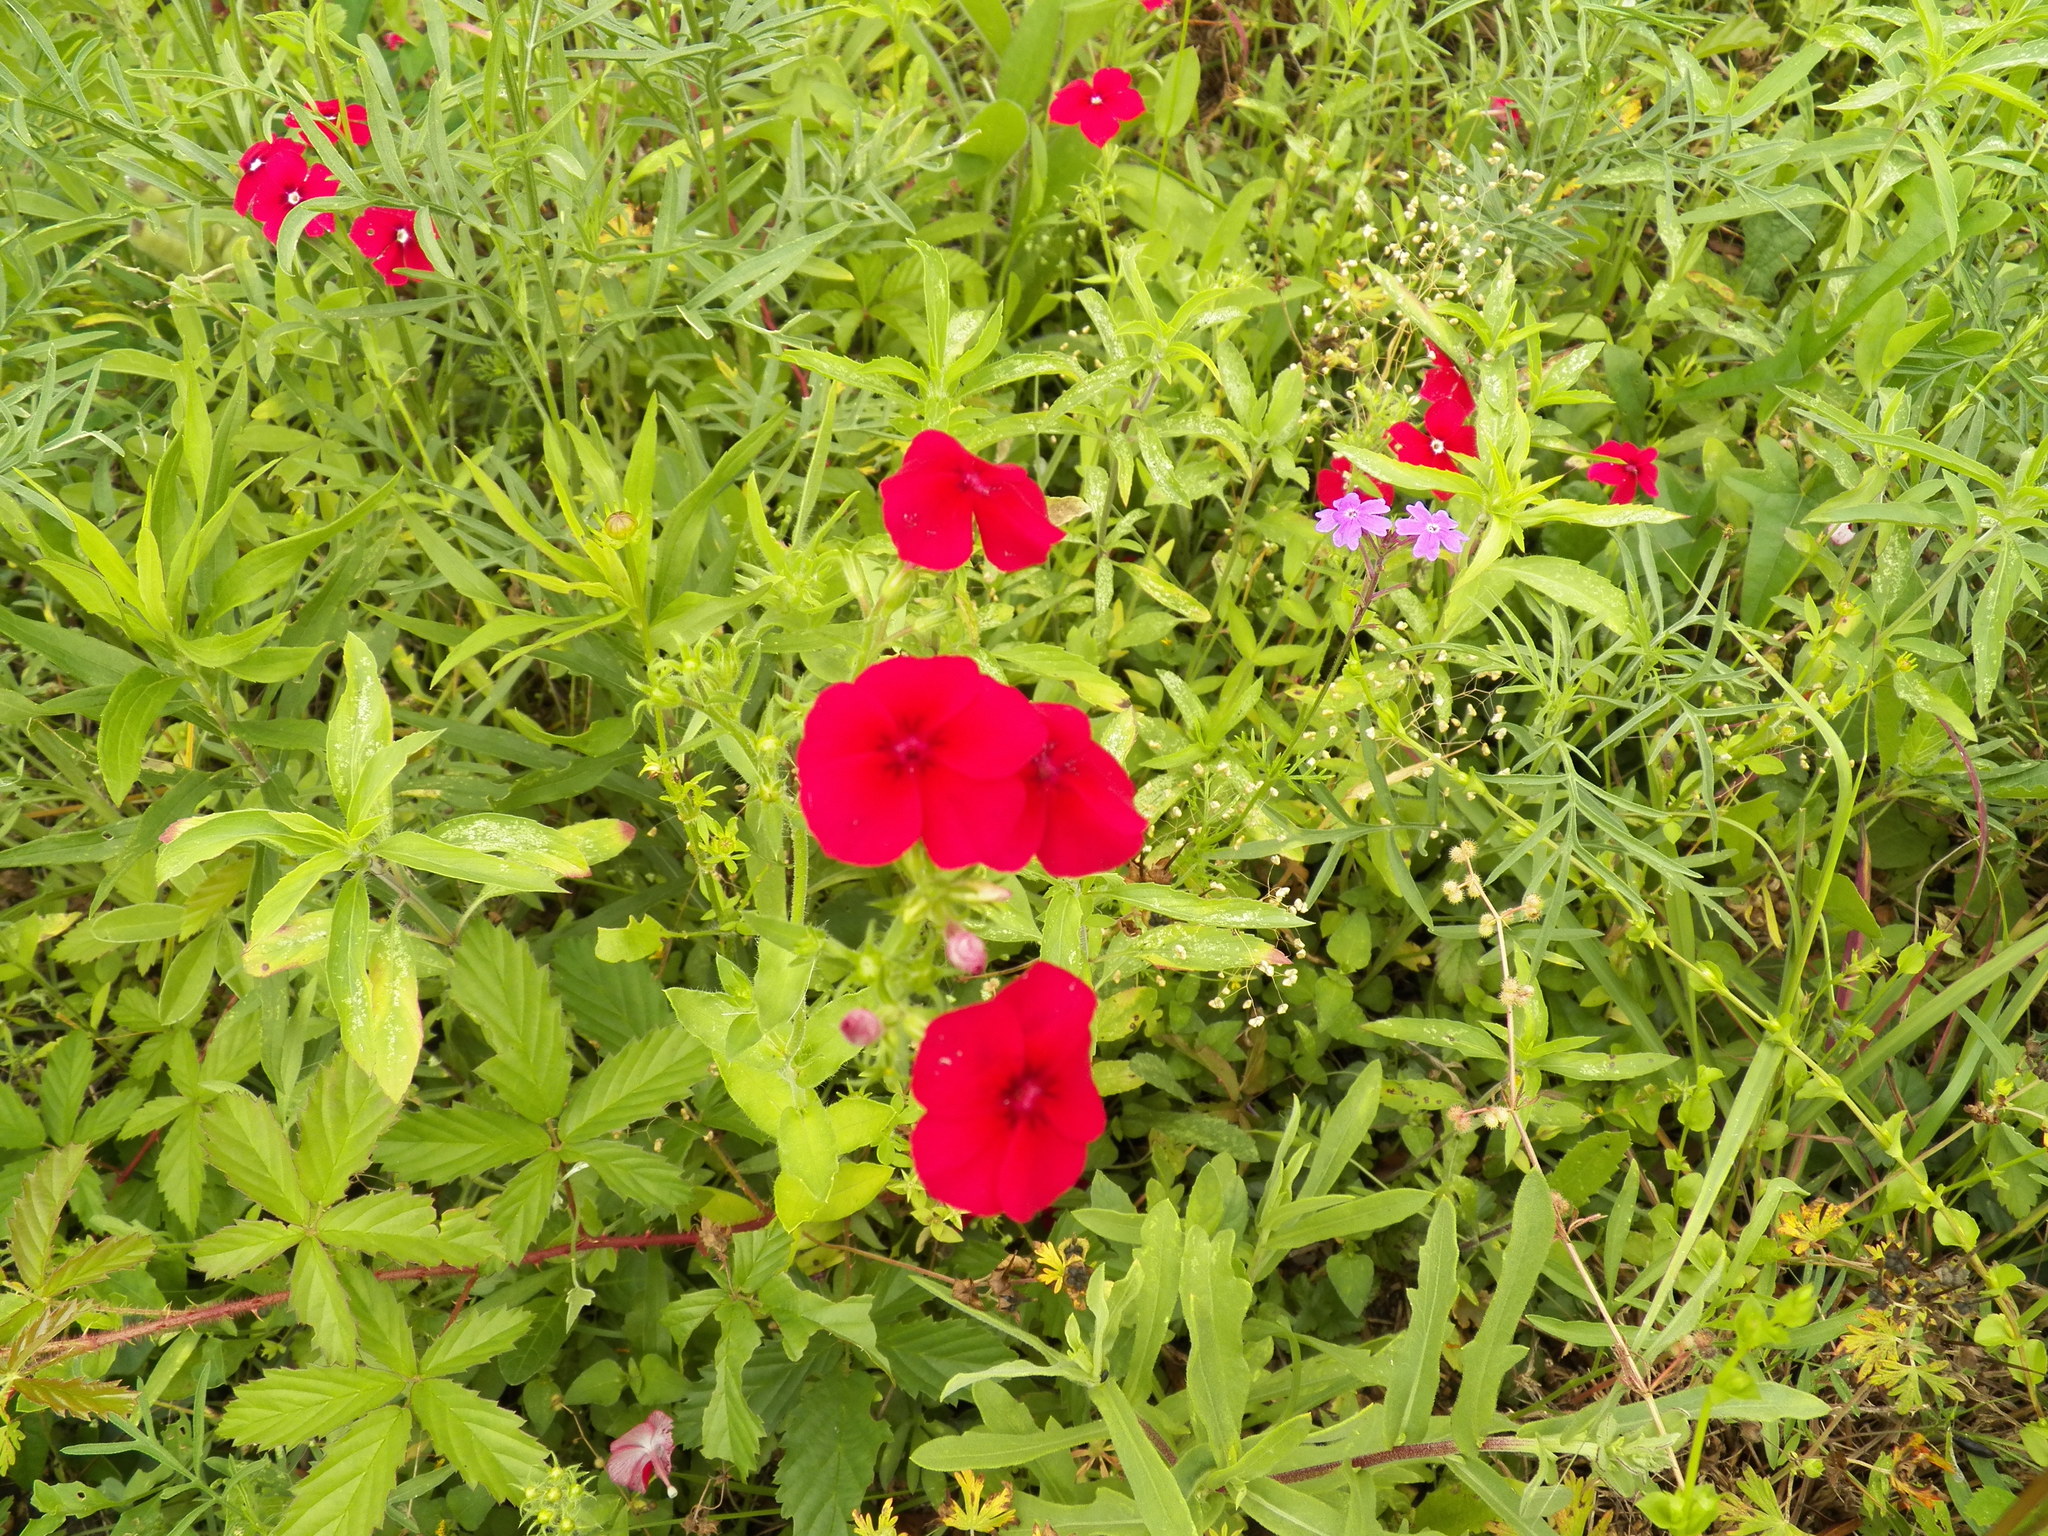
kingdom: Plantae
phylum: Tracheophyta
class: Magnoliopsida
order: Ericales
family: Polemoniaceae
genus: Phlox
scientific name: Phlox drummondii
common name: Drummond's phlox
